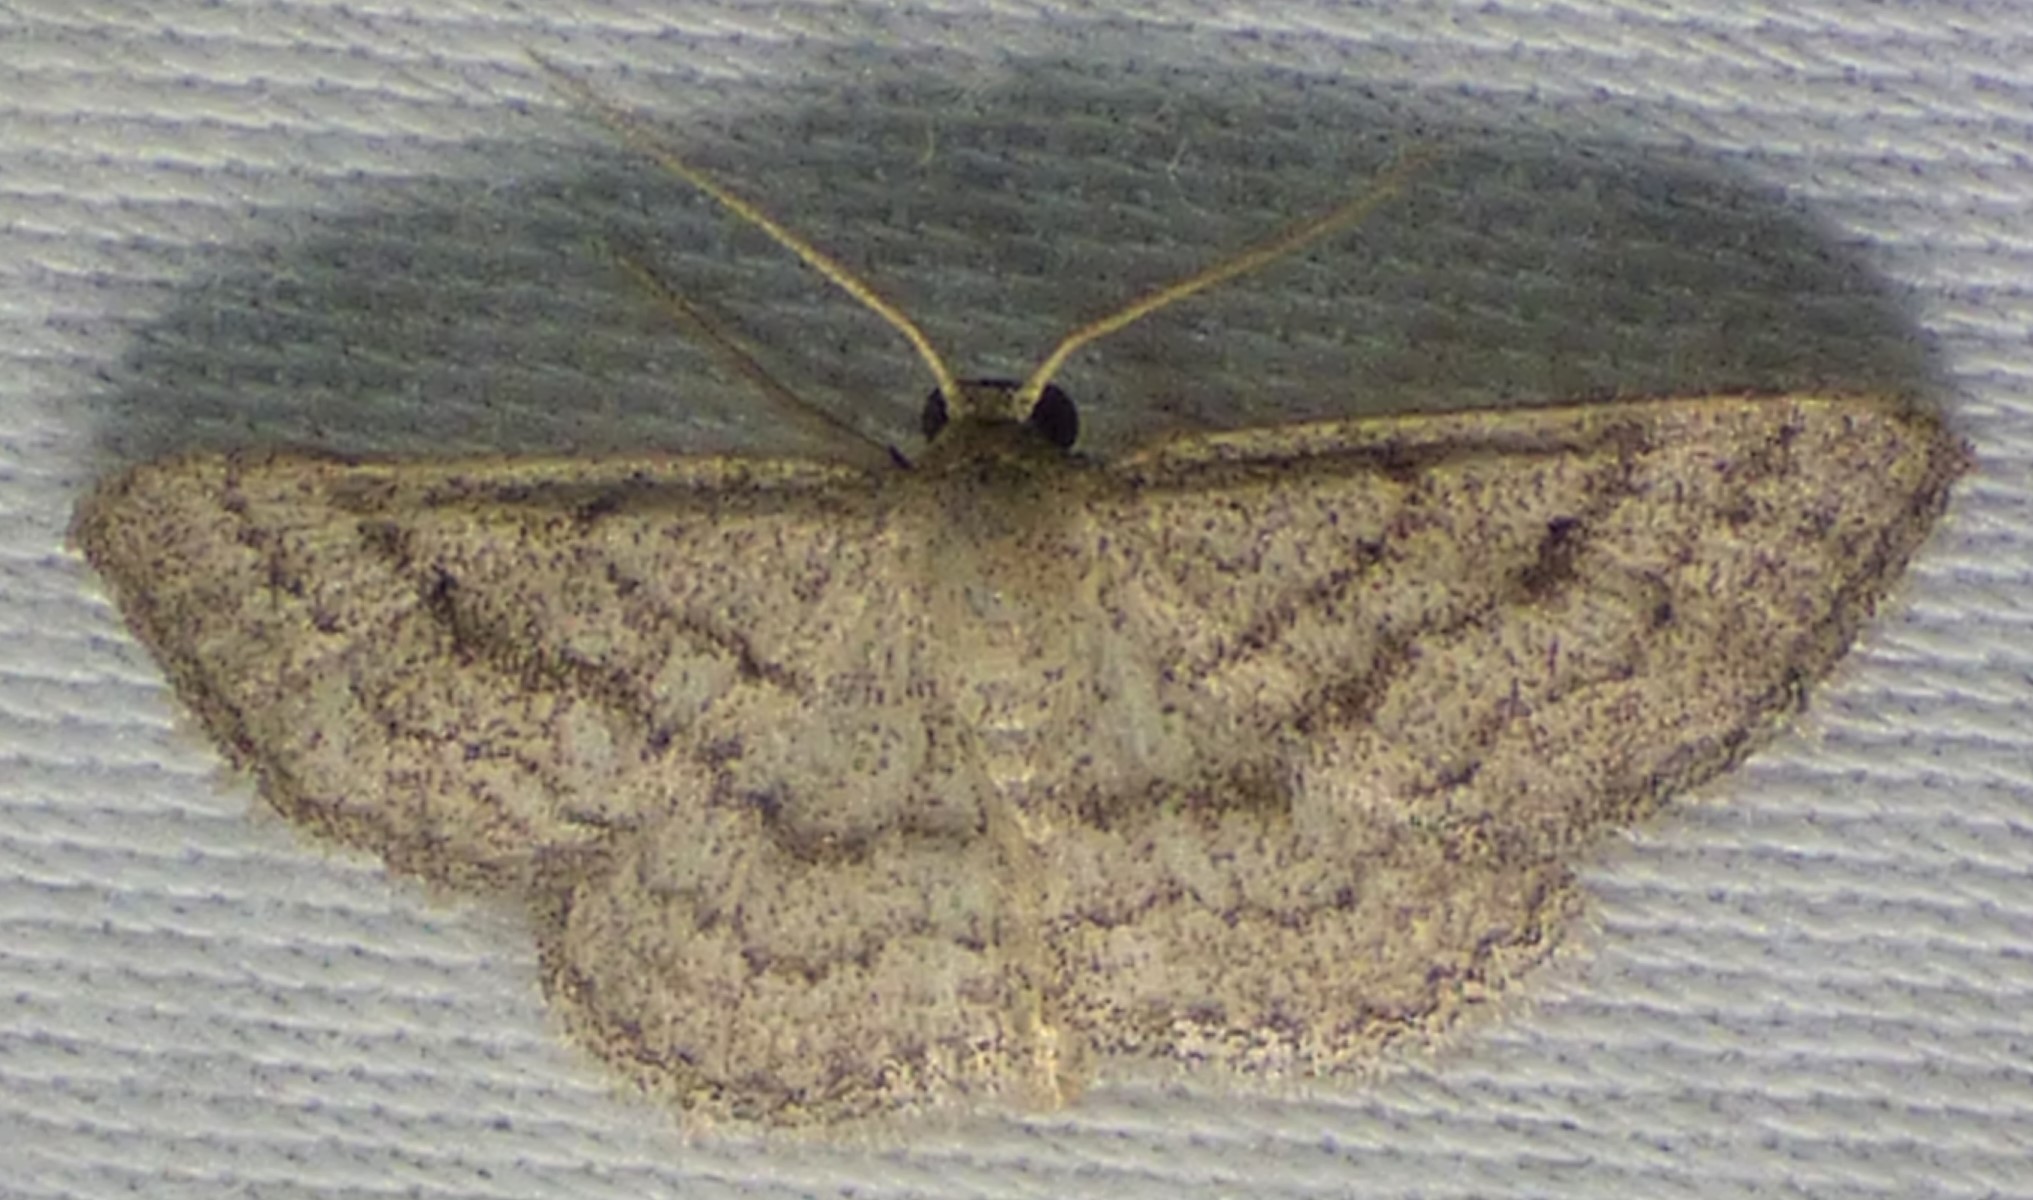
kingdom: Animalia
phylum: Arthropoda
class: Insecta
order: Lepidoptera
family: Geometridae
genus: Lobocleta
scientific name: Lobocleta ossularia
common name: Drab brown wave
